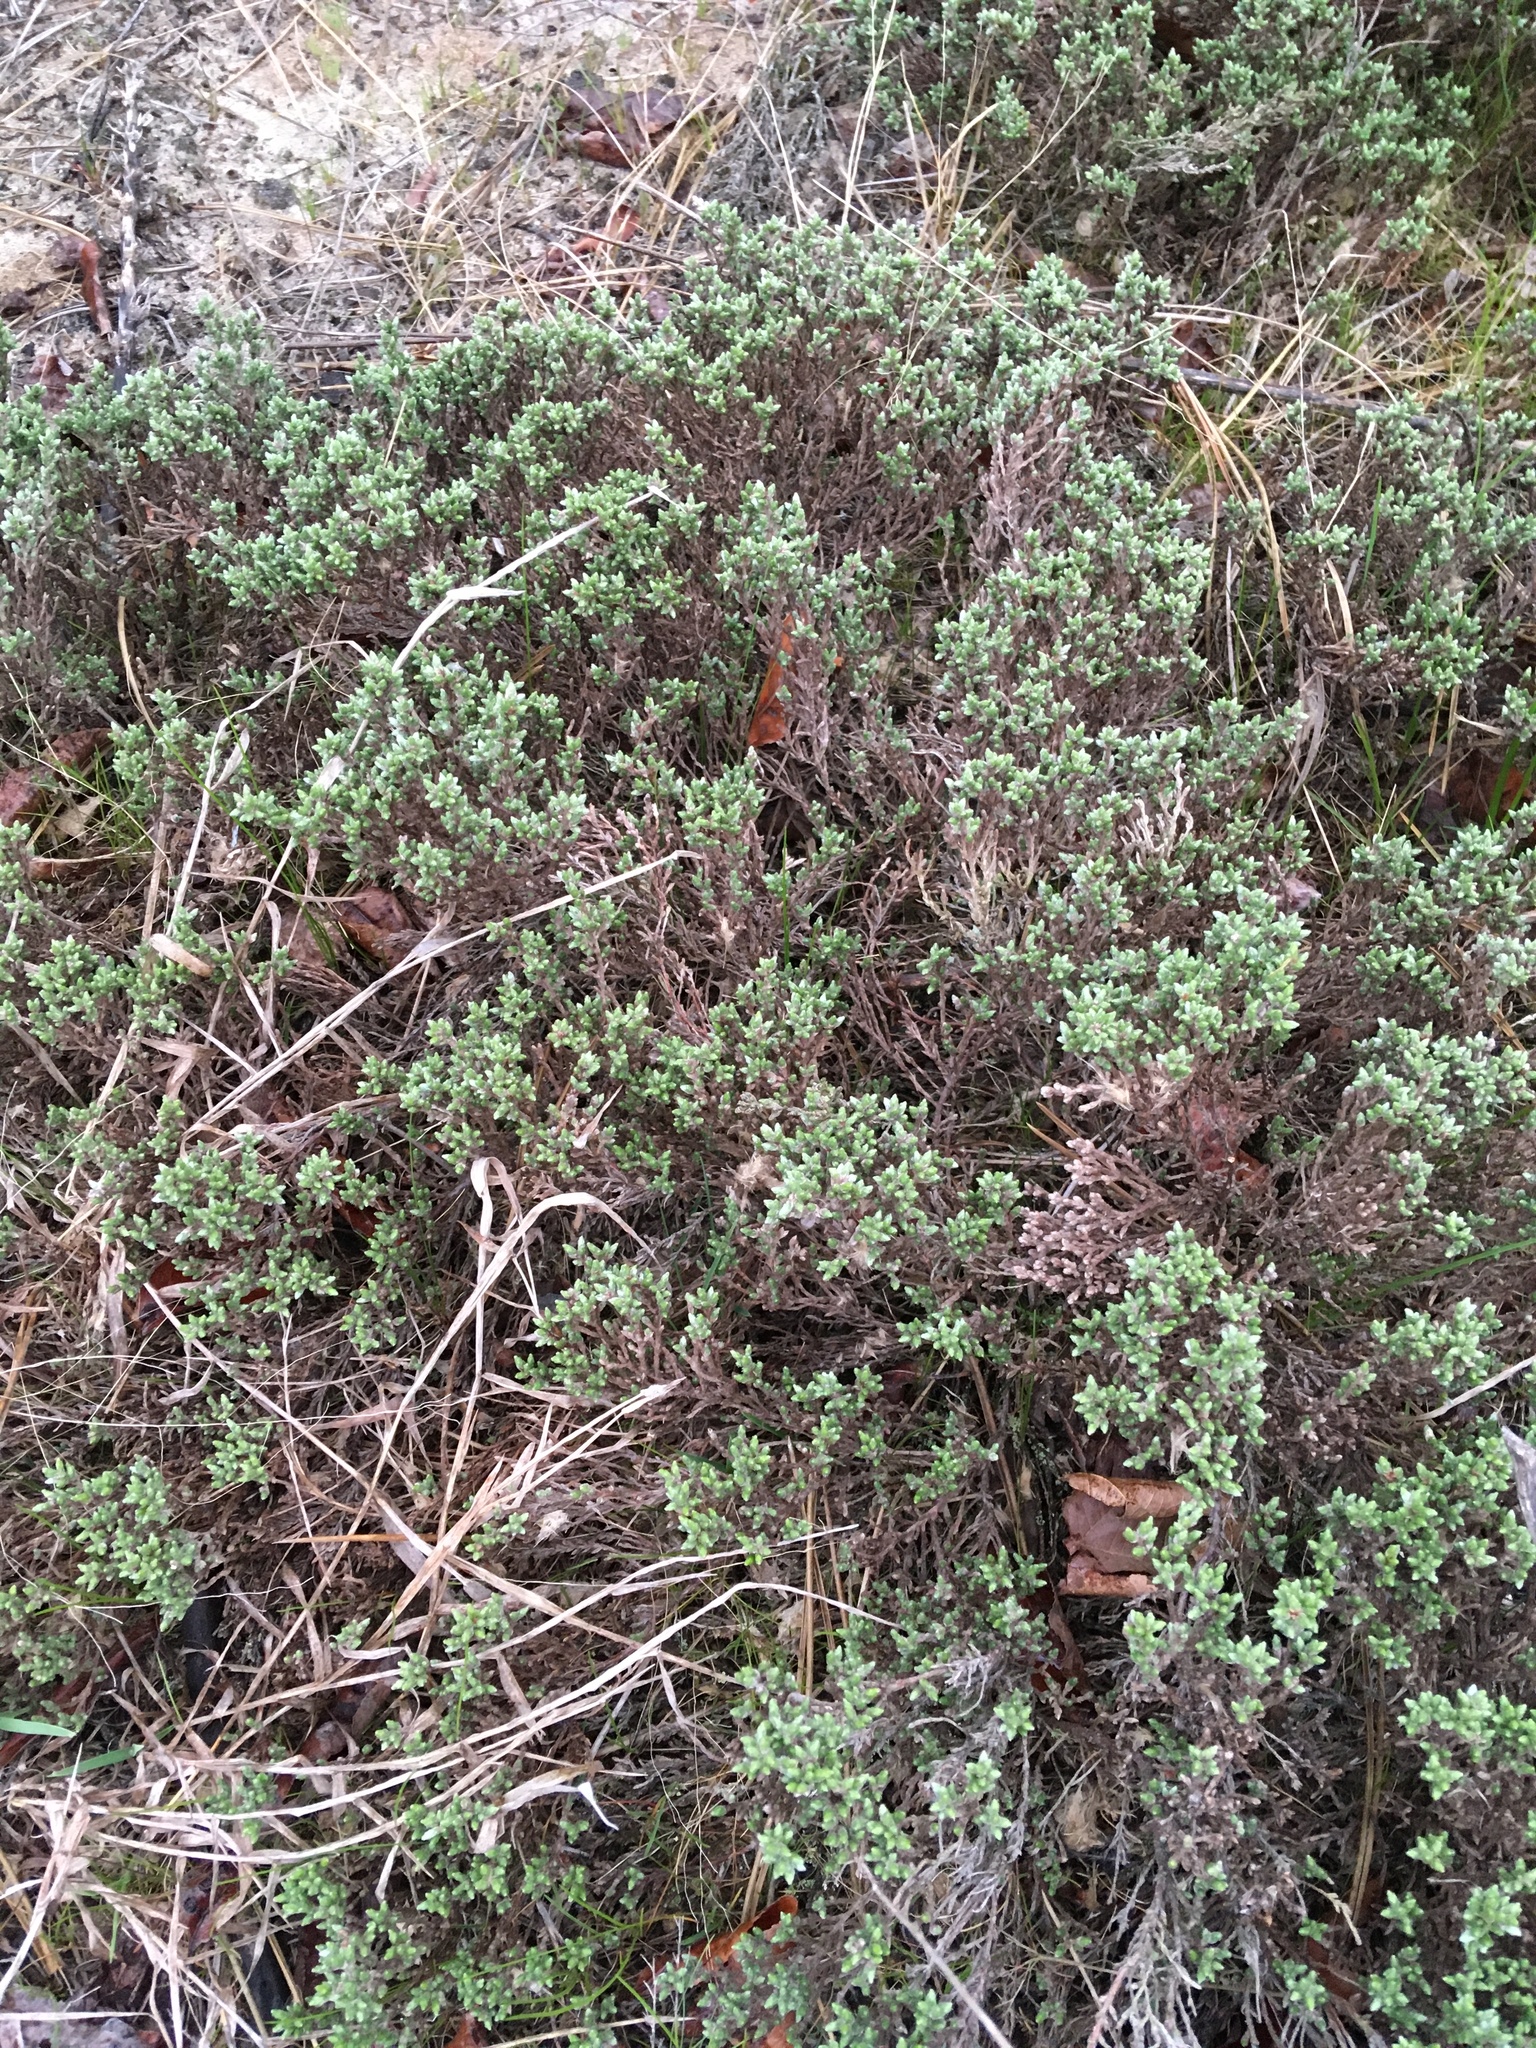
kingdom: Plantae
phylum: Tracheophyta
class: Magnoliopsida
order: Malvales
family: Cistaceae
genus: Hudsonia
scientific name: Hudsonia tomentosa
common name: Beach-heath
